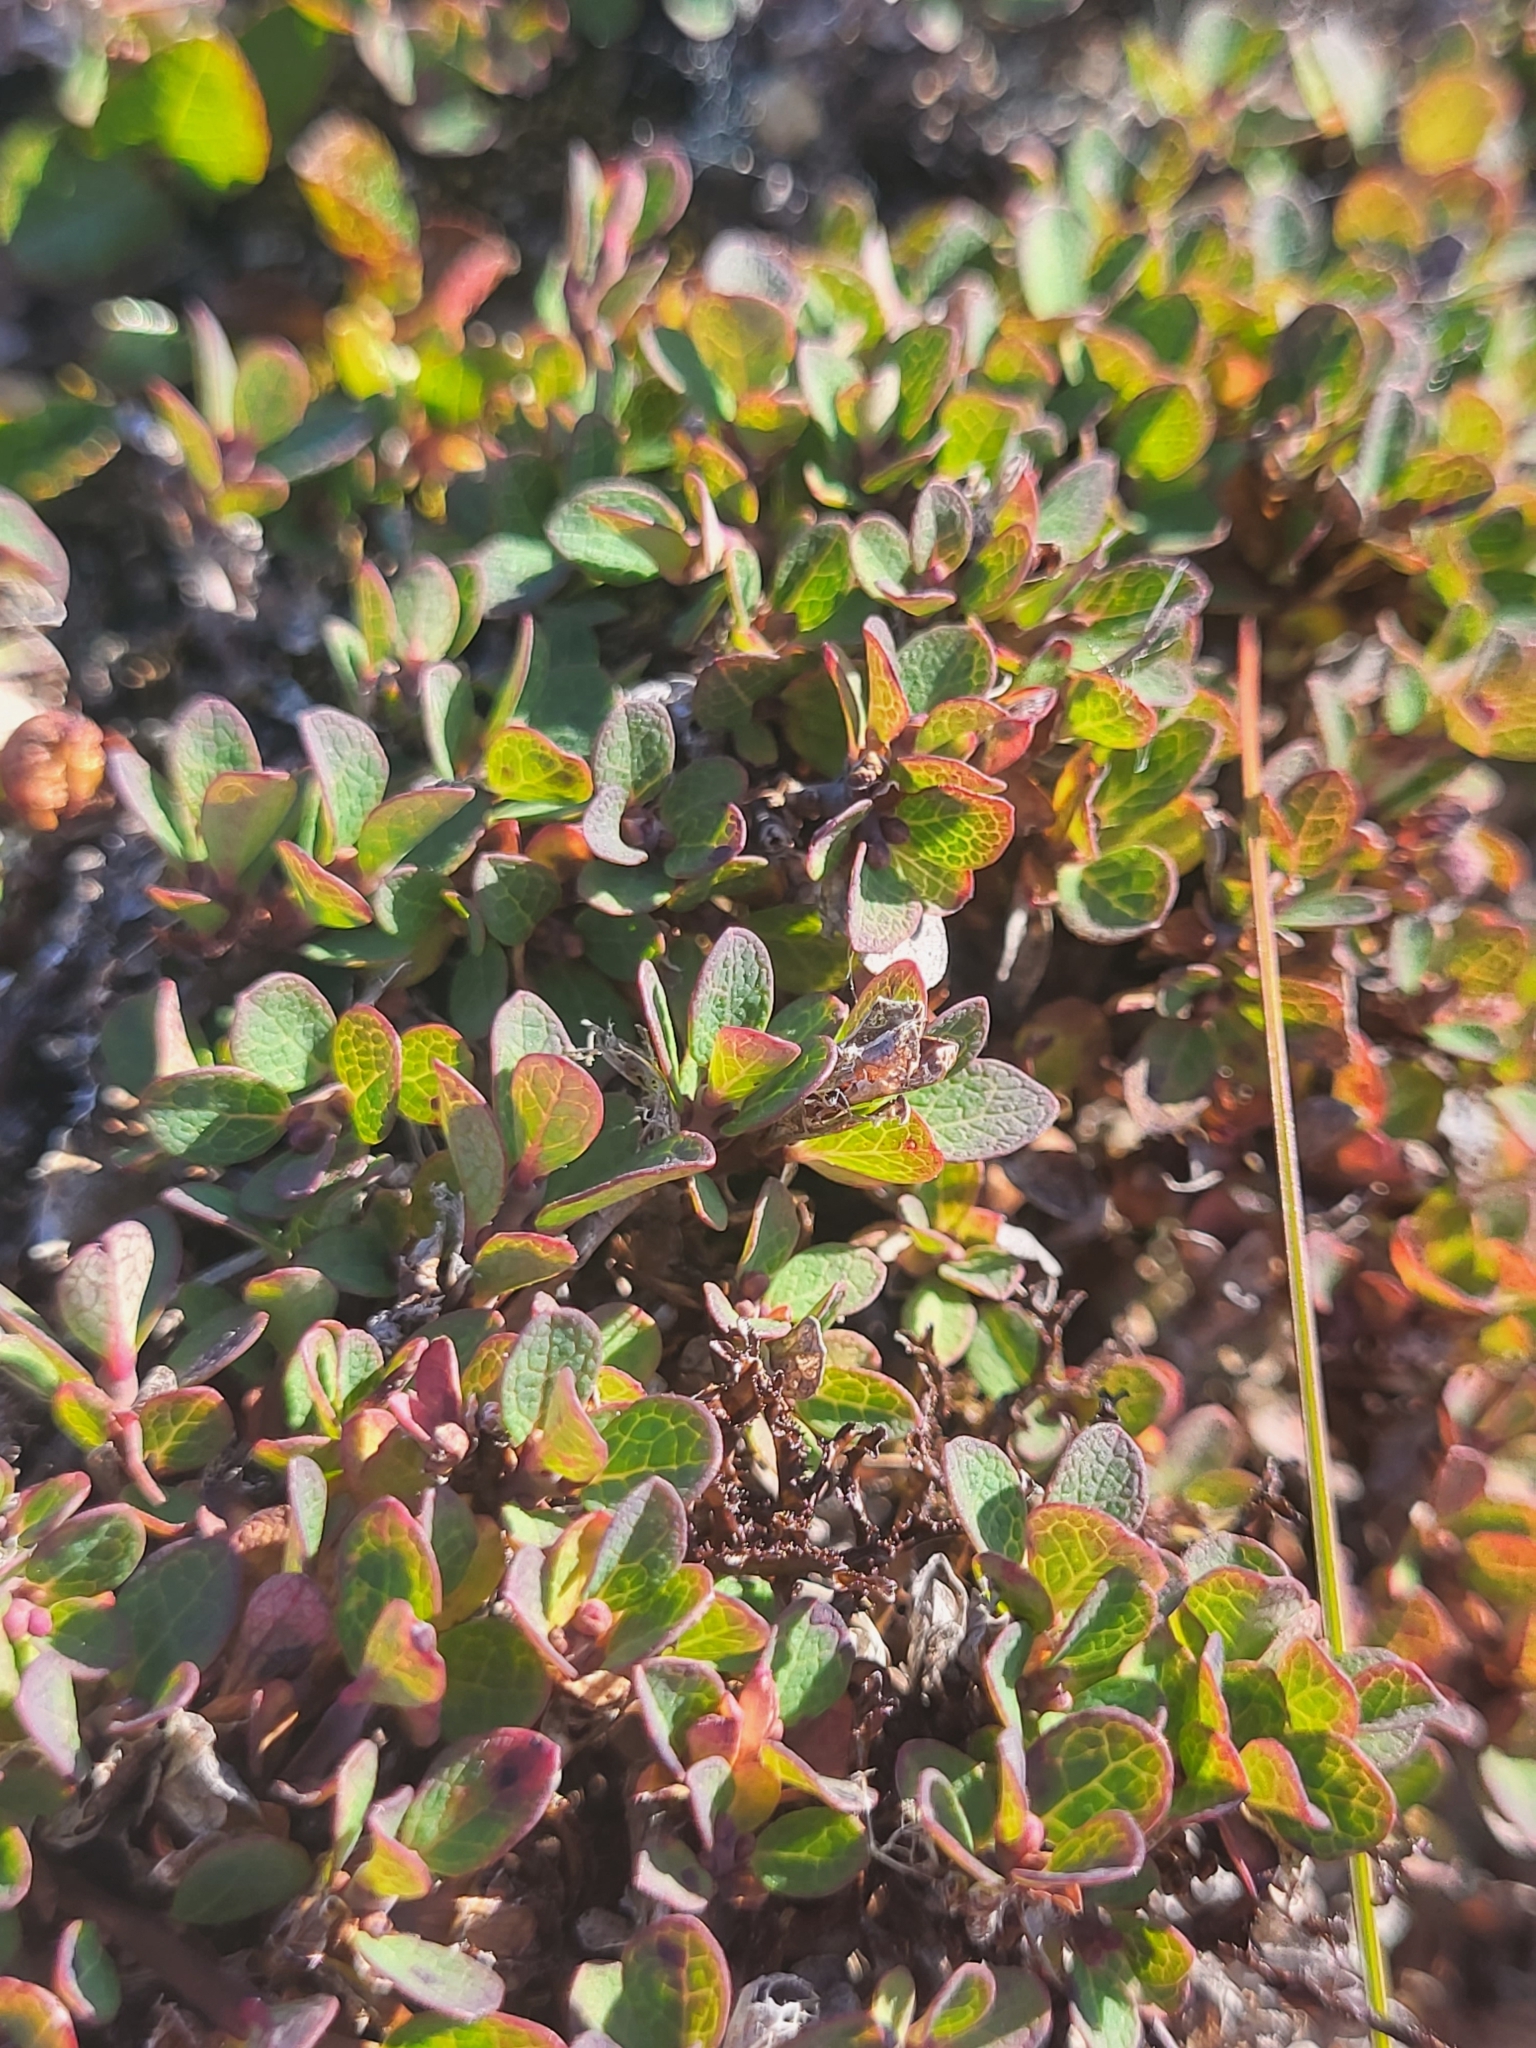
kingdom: Plantae
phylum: Tracheophyta
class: Magnoliopsida
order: Ericales
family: Ericaceae
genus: Vaccinium
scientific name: Vaccinium uliginosum
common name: Bog bilberry
